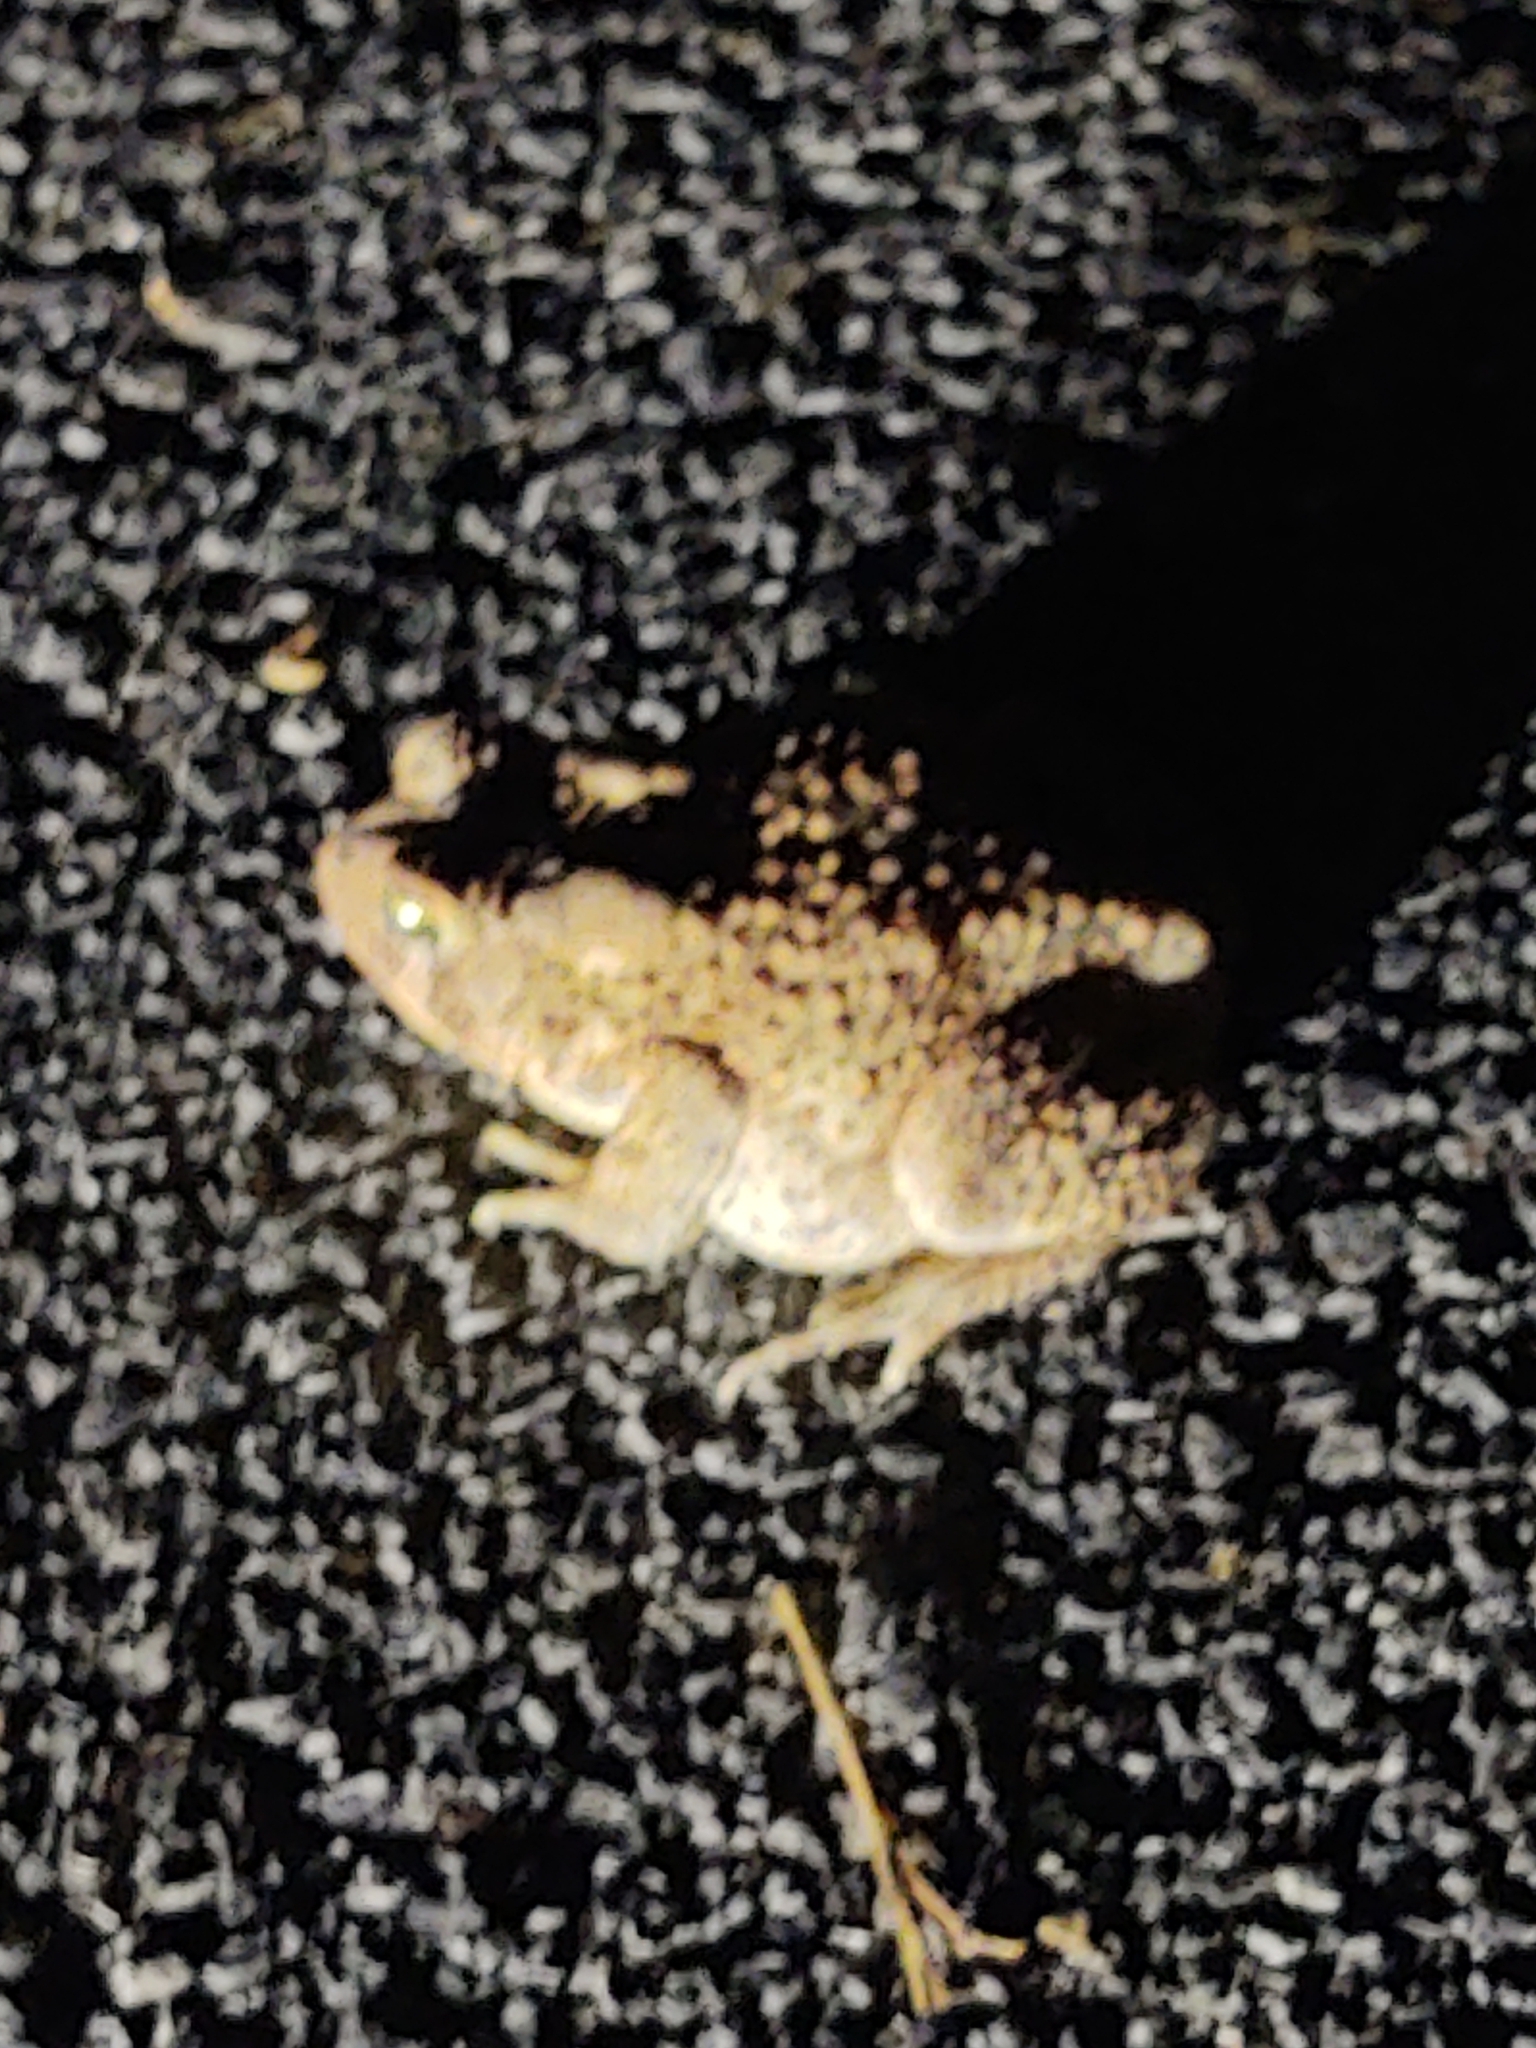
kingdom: Animalia
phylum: Chordata
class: Amphibia
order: Anura
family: Bufonidae
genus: Anaxyrus
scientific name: Anaxyrus americanus
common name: American toad
